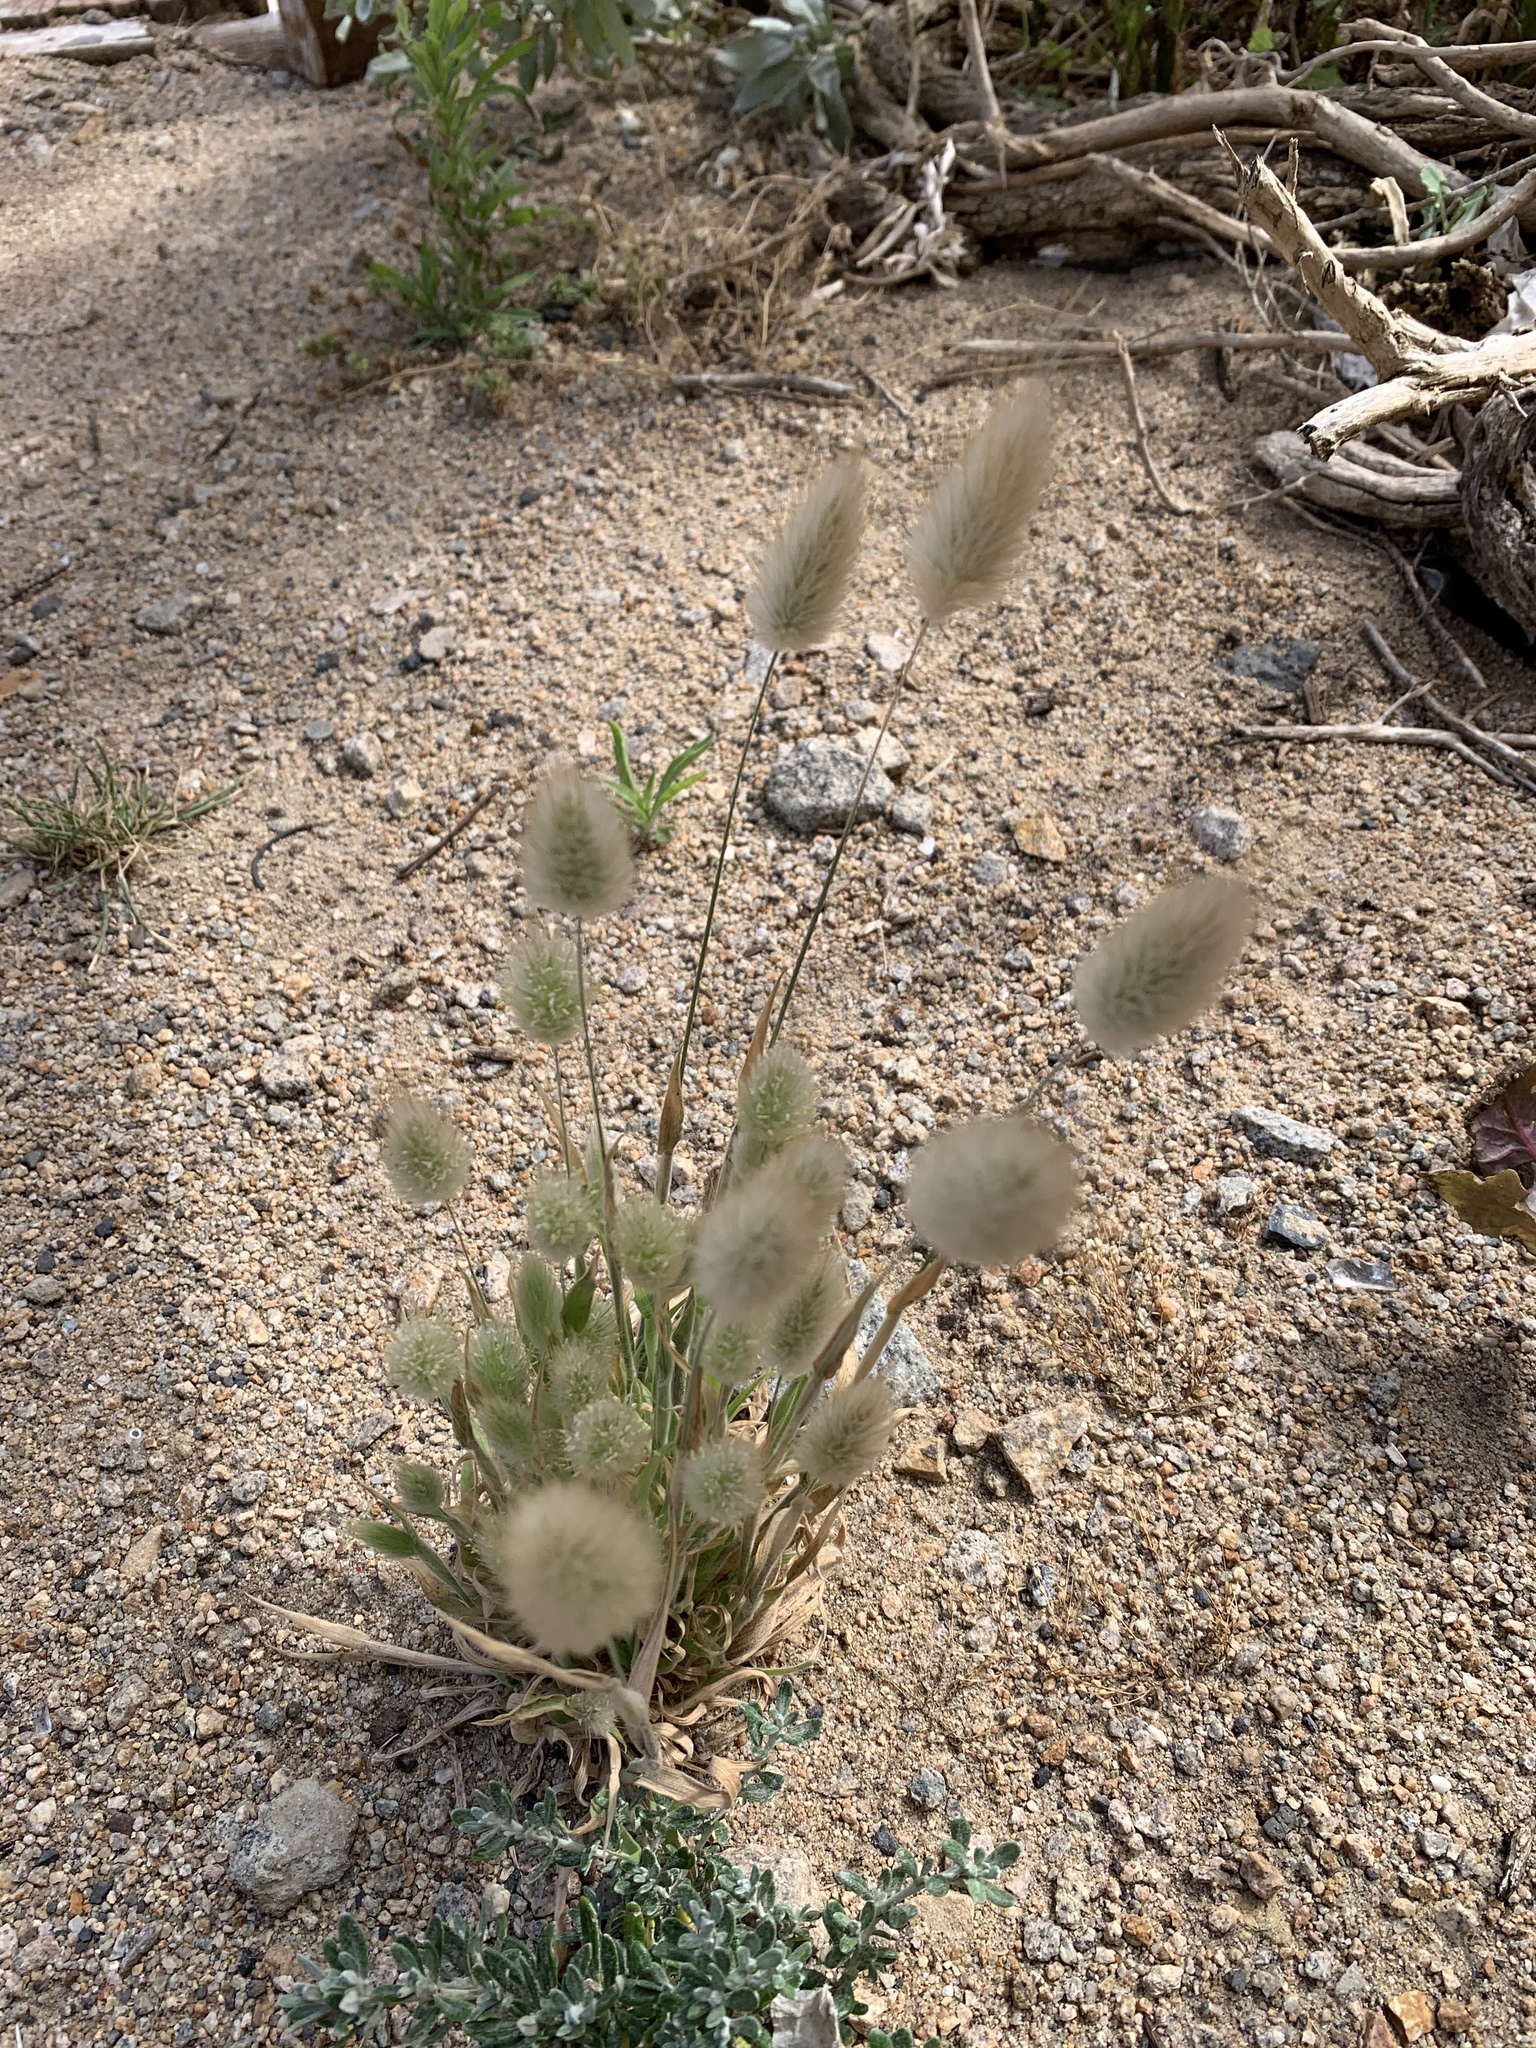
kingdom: Plantae
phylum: Tracheophyta
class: Liliopsida
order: Poales
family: Poaceae
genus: Lagurus
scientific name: Lagurus ovatus
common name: Hare's-tail
